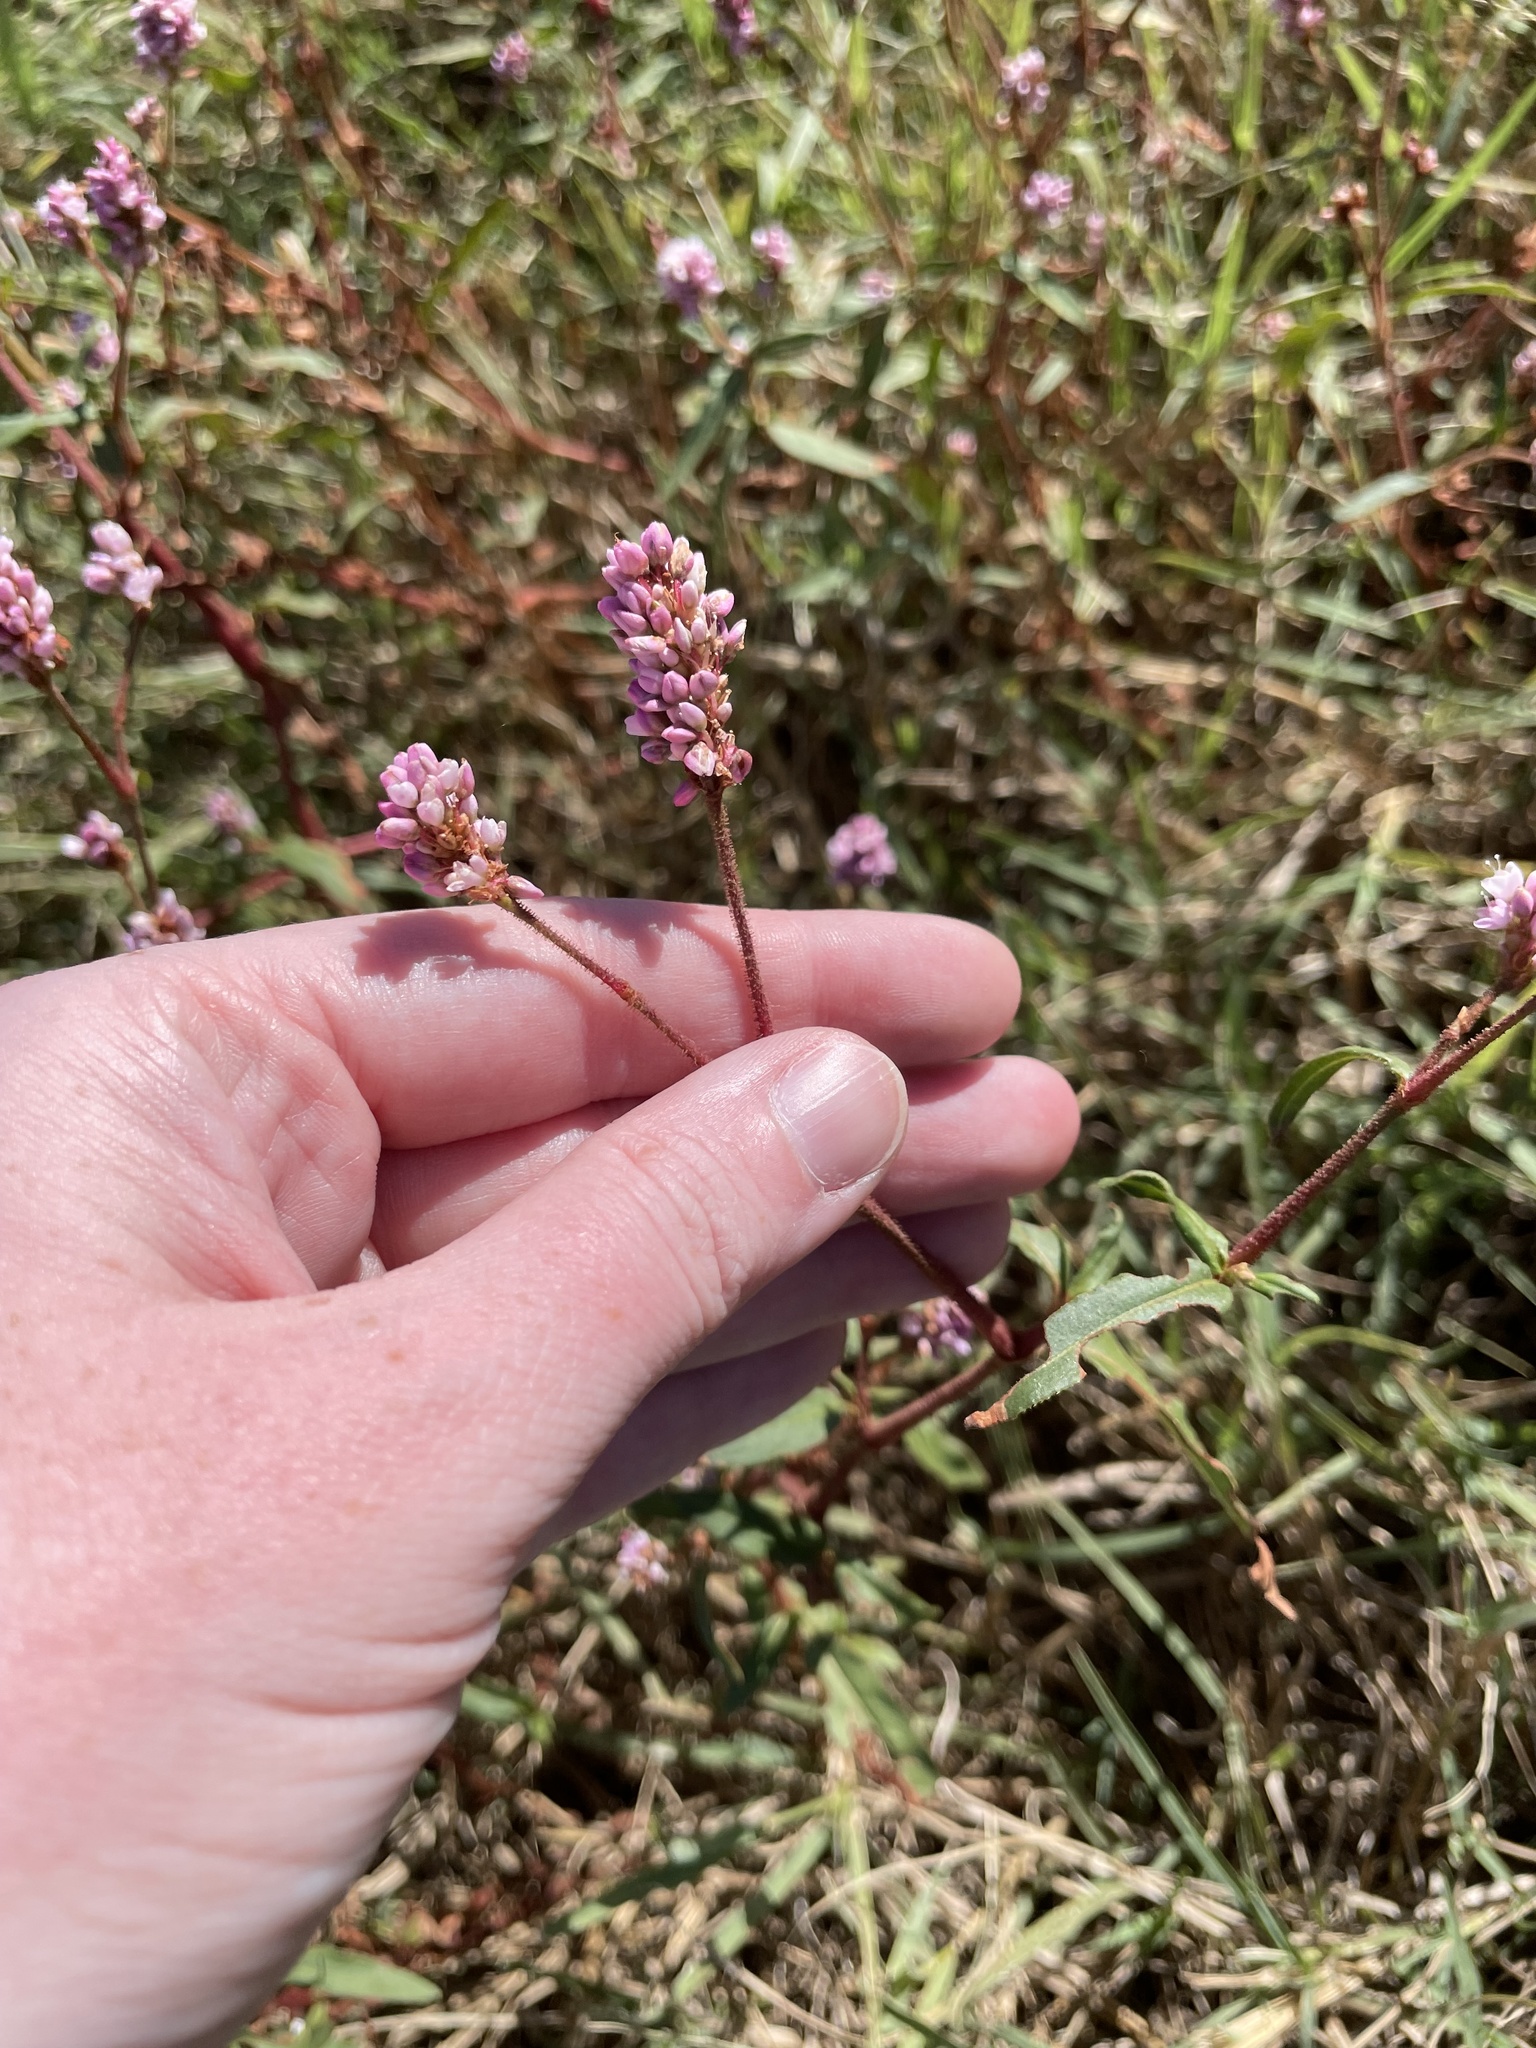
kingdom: Plantae
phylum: Tracheophyta
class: Magnoliopsida
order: Caryophyllales
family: Polygonaceae
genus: Persicaria
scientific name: Persicaria bicornis
